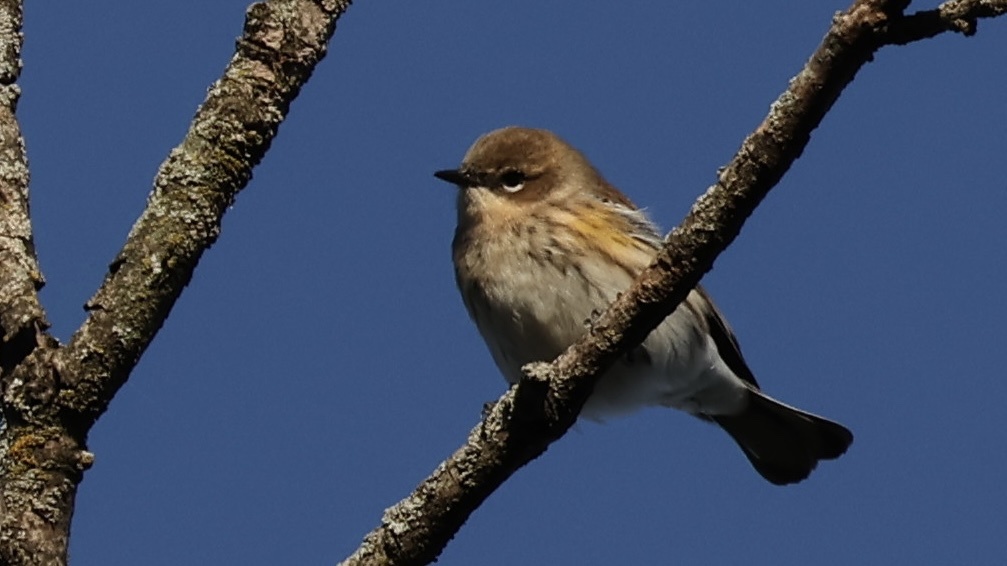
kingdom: Animalia
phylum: Chordata
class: Aves
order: Passeriformes
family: Parulidae
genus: Setophaga
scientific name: Setophaga coronata
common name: Myrtle warbler
